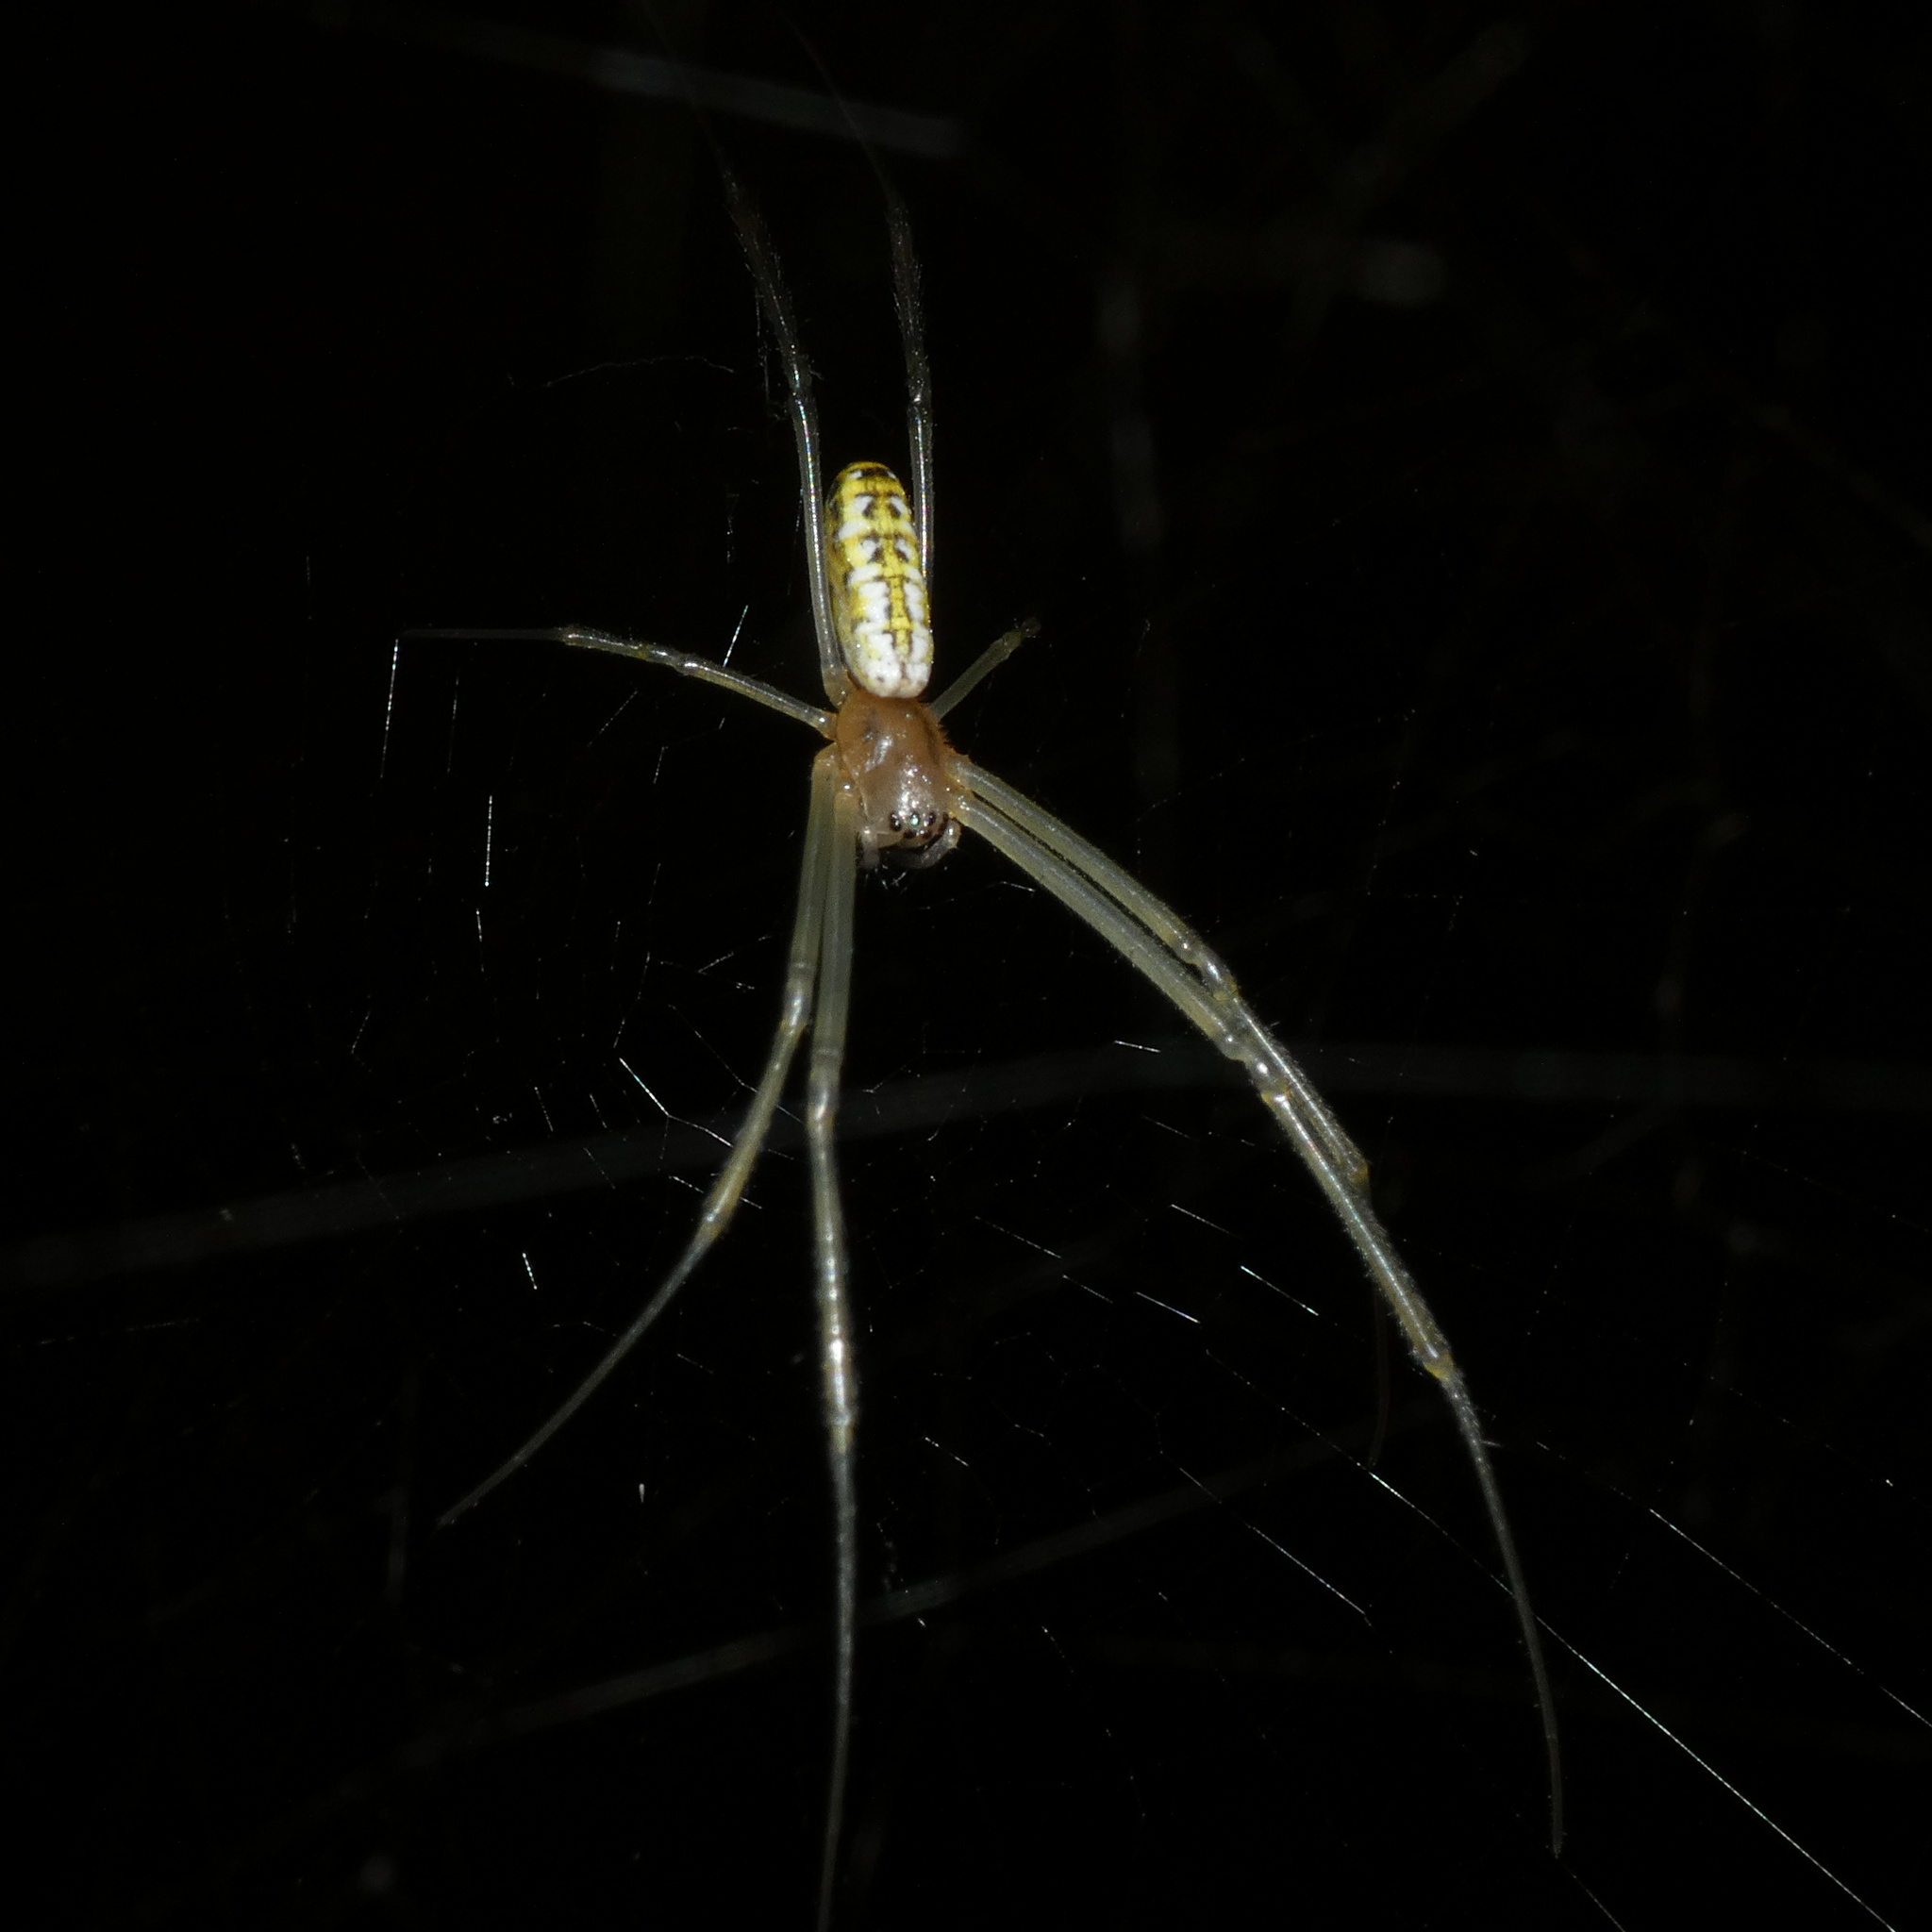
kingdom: Animalia
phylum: Arthropoda
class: Arachnida
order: Araneae
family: Araneidae
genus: Trichonephila
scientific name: Trichonephila fenestrata
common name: Hairy golden orb weaver
